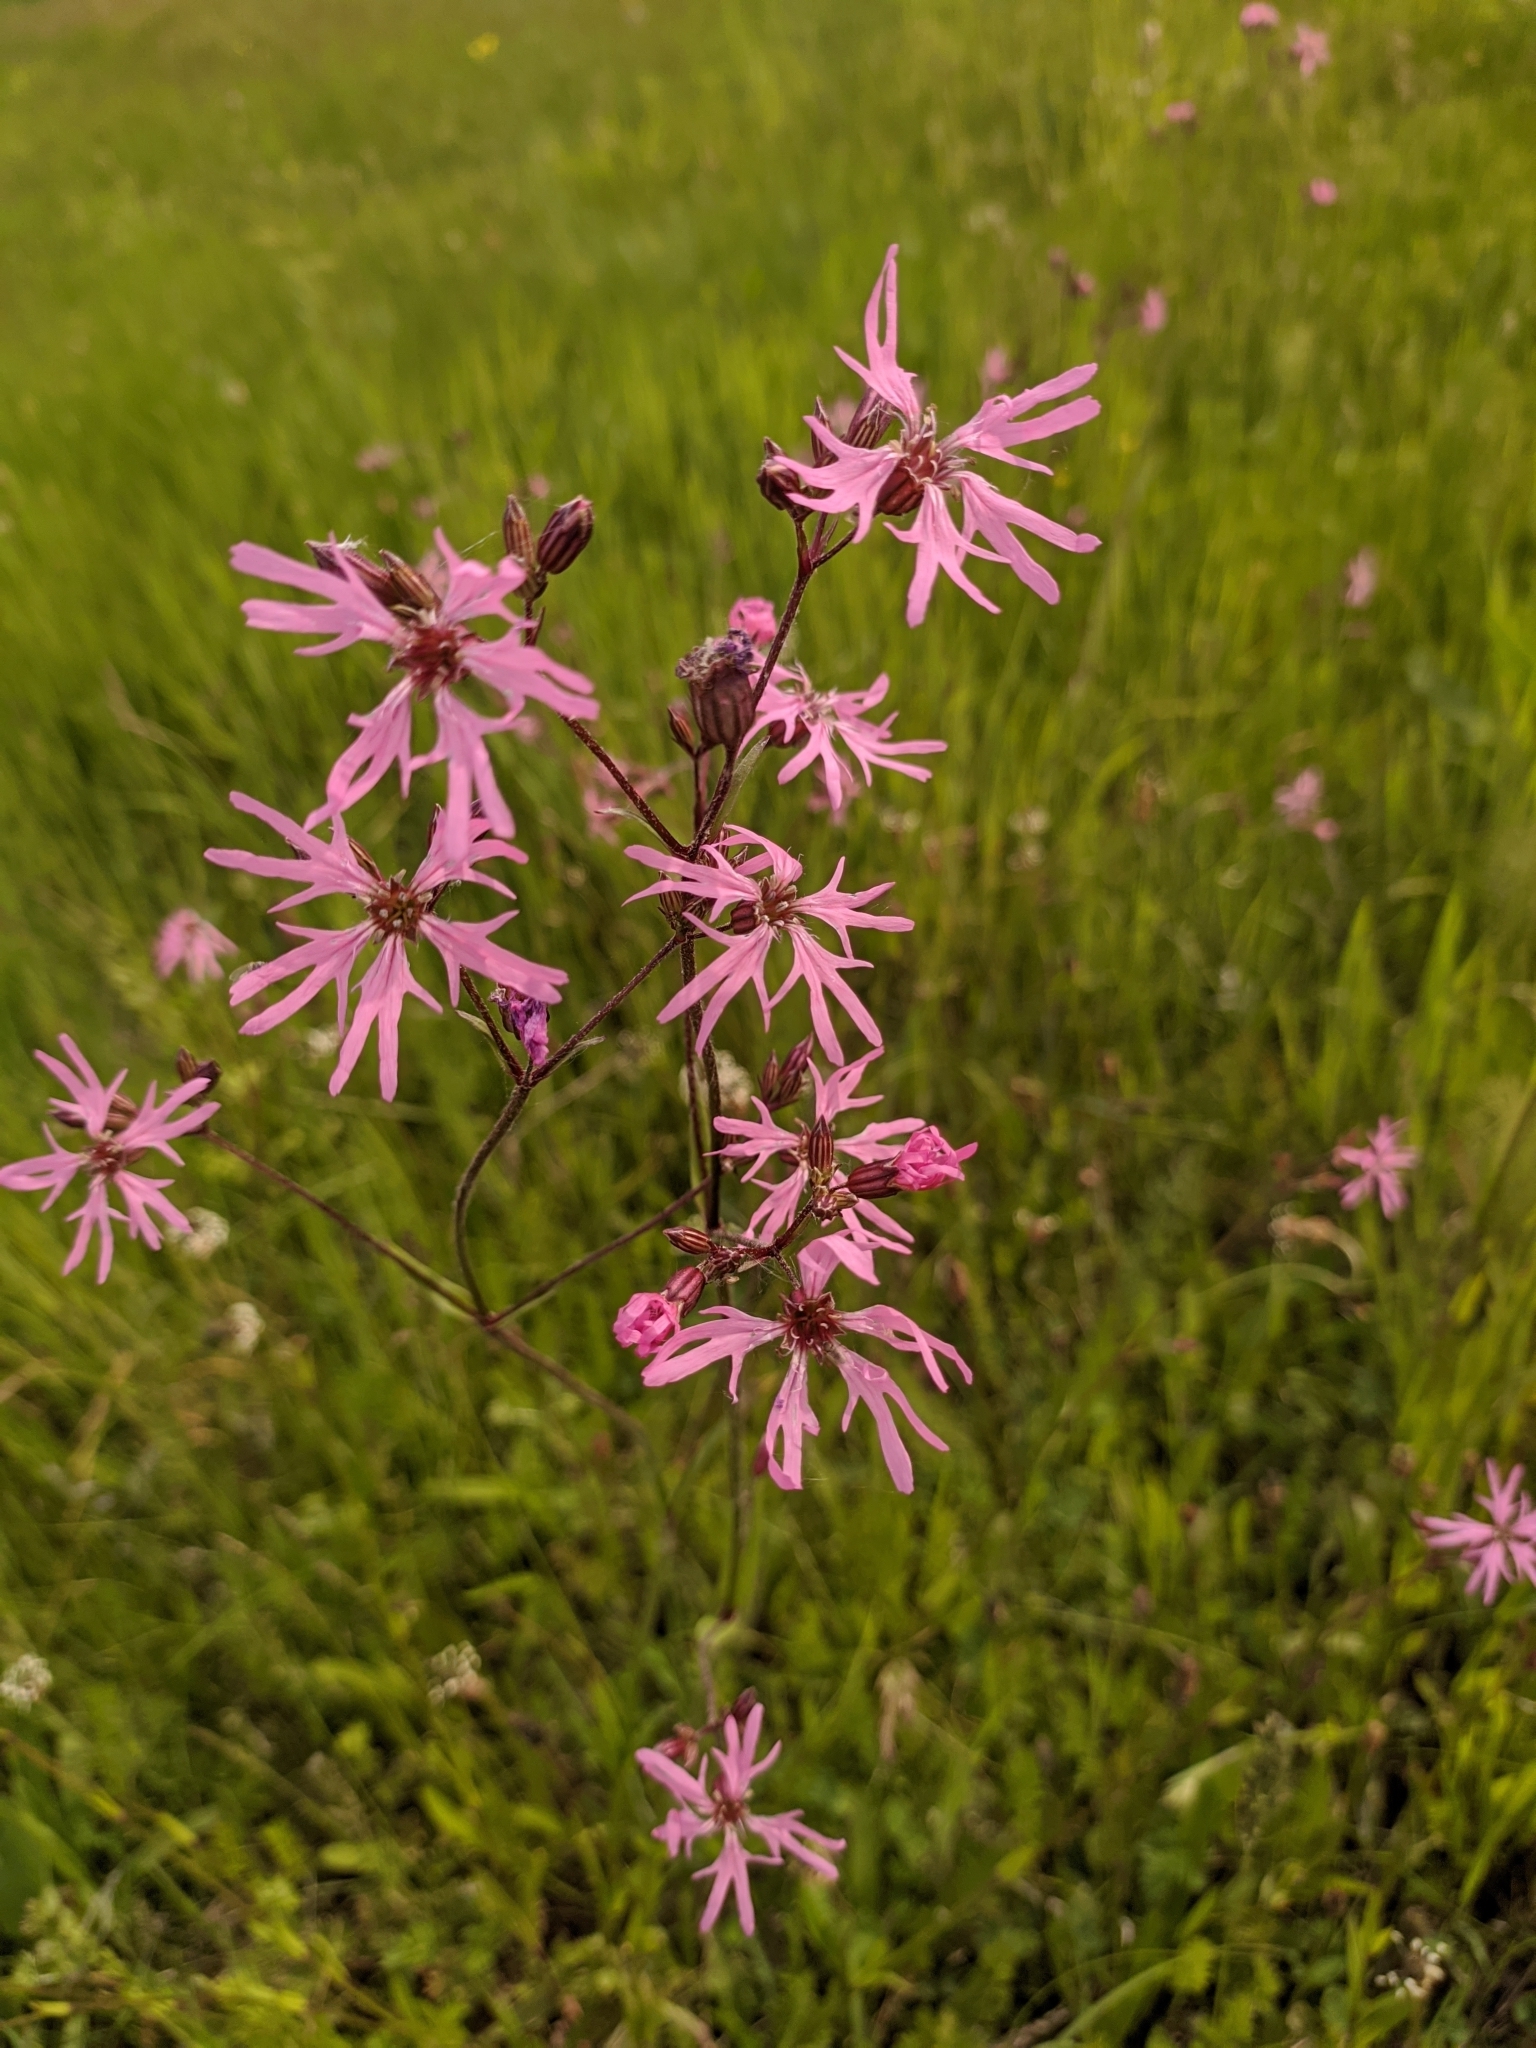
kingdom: Plantae
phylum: Tracheophyta
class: Magnoliopsida
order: Caryophyllales
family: Caryophyllaceae
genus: Silene
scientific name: Silene flos-cuculi
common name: Ragged-robin
